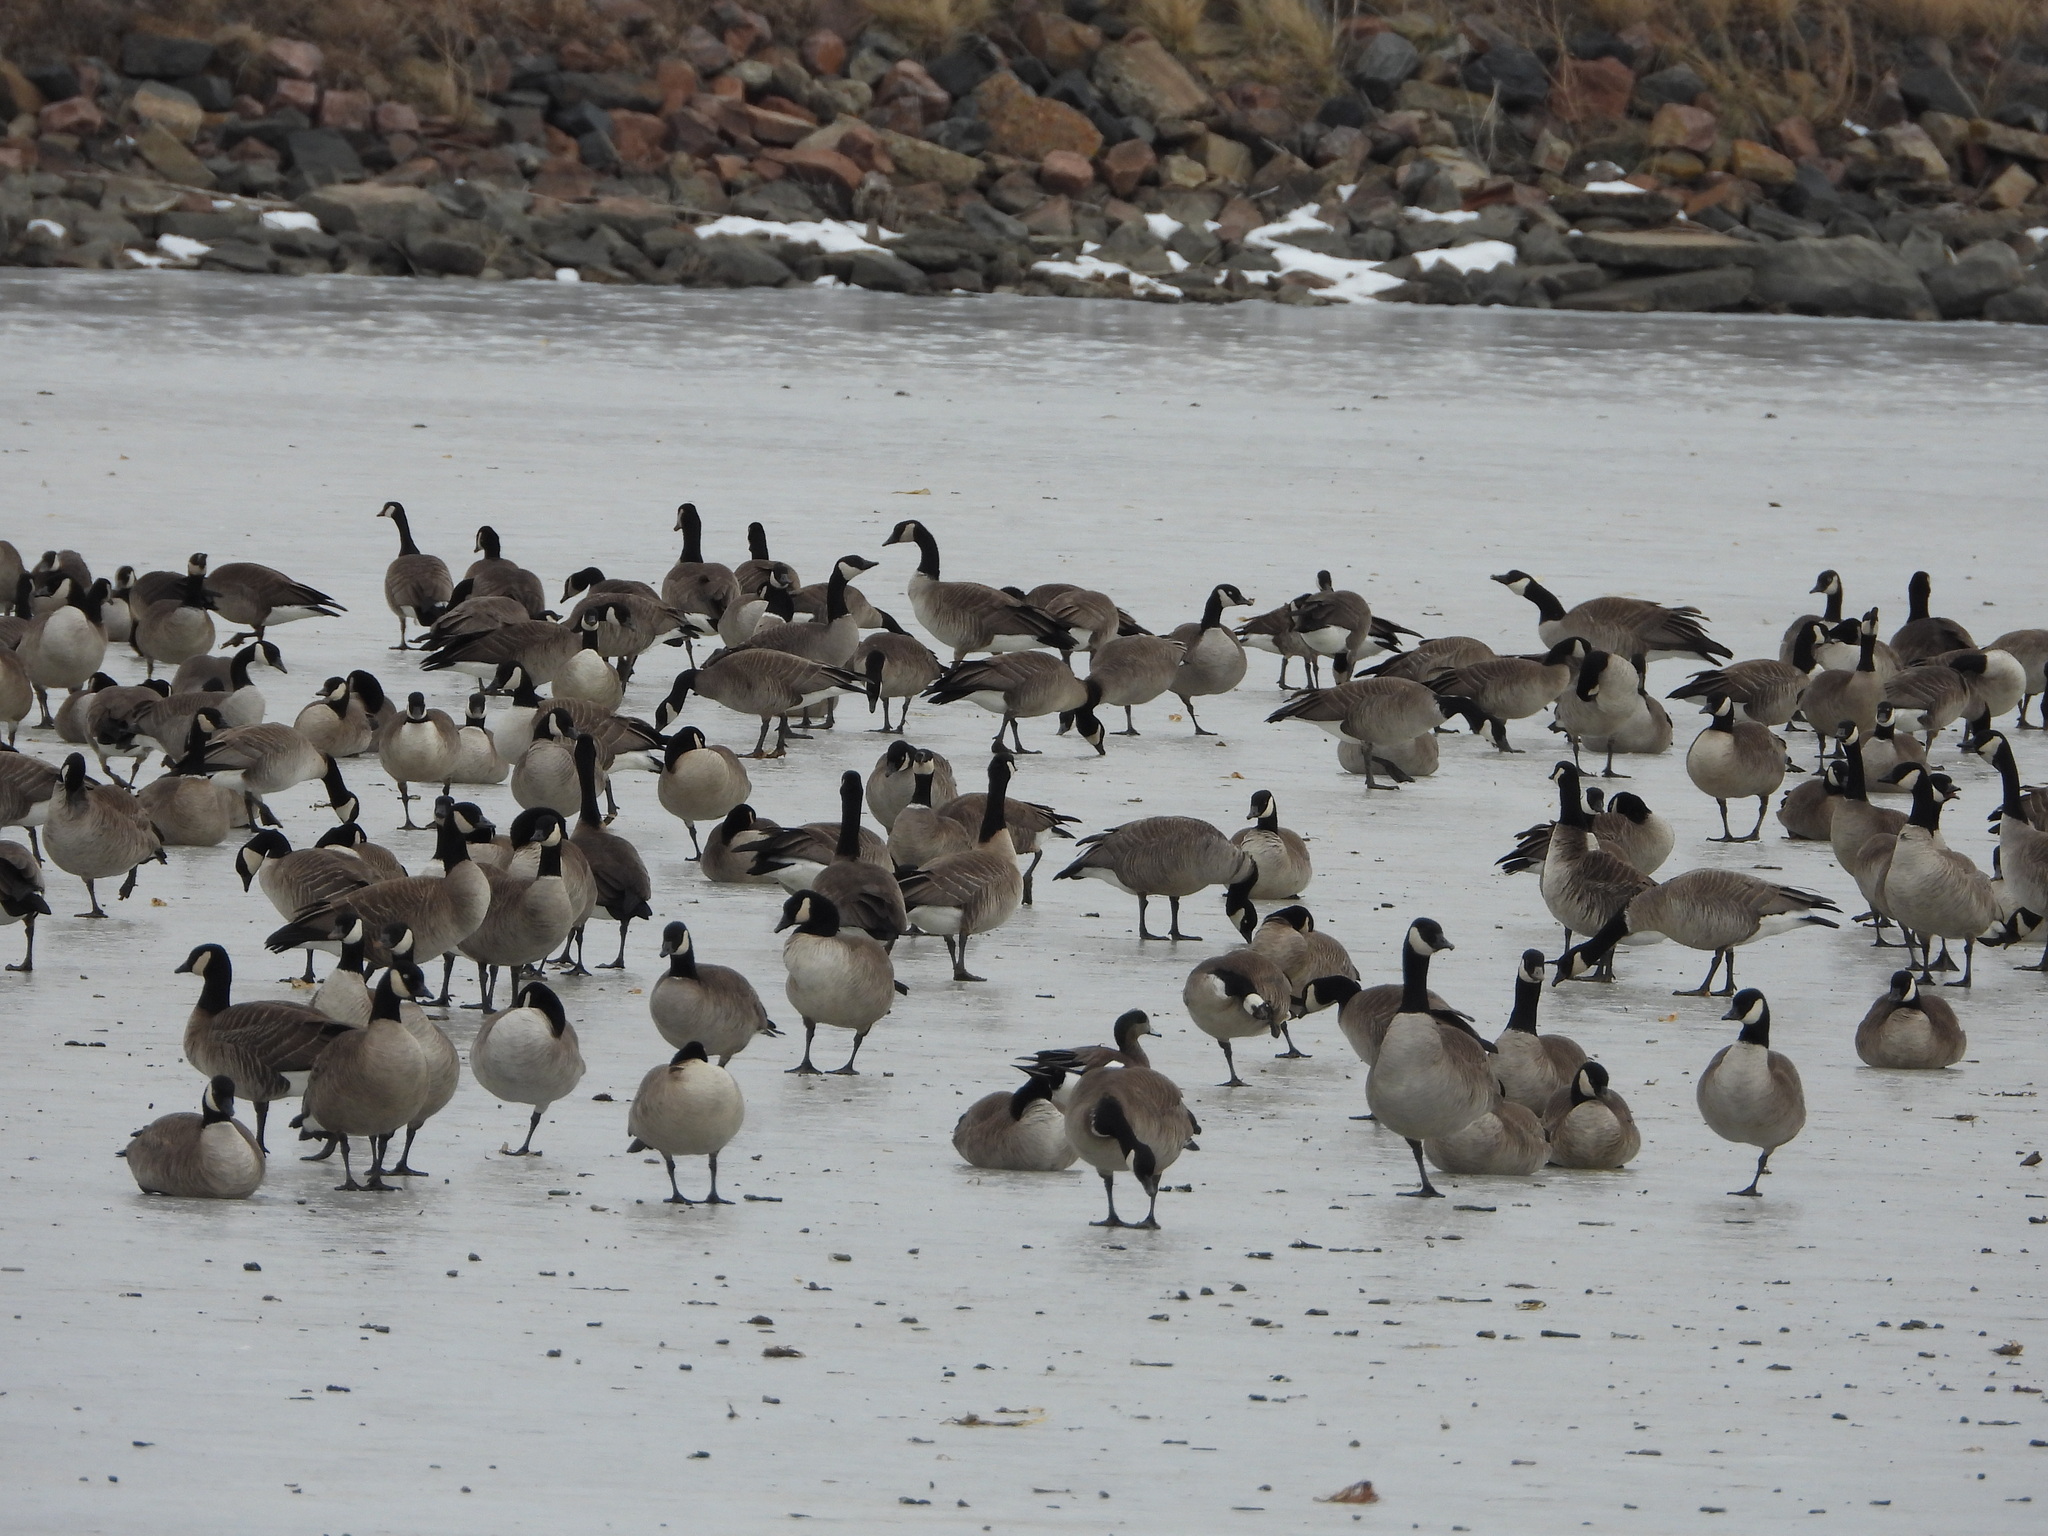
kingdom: Animalia
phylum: Chordata
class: Aves
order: Anseriformes
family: Anatidae
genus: Branta
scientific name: Branta hutchinsii
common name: Cackling goose
